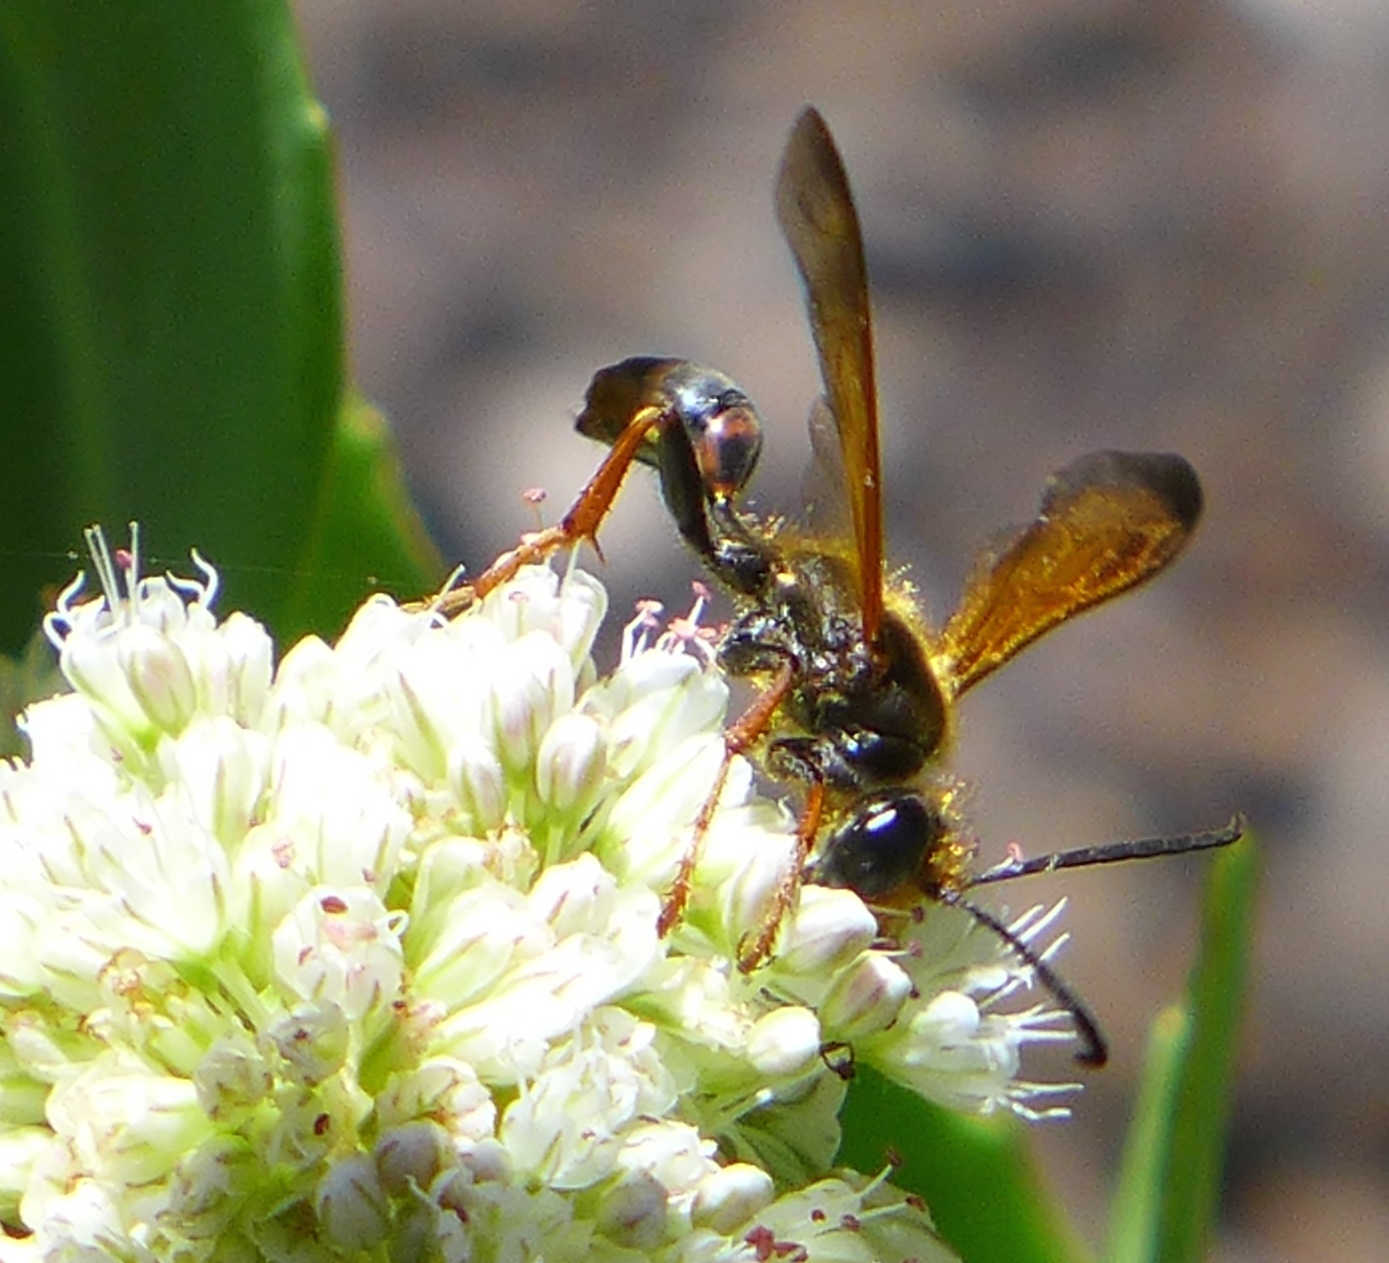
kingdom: Animalia
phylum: Arthropoda
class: Insecta
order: Hymenoptera
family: Sphecidae
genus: Isodontia
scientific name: Isodontia elegans
